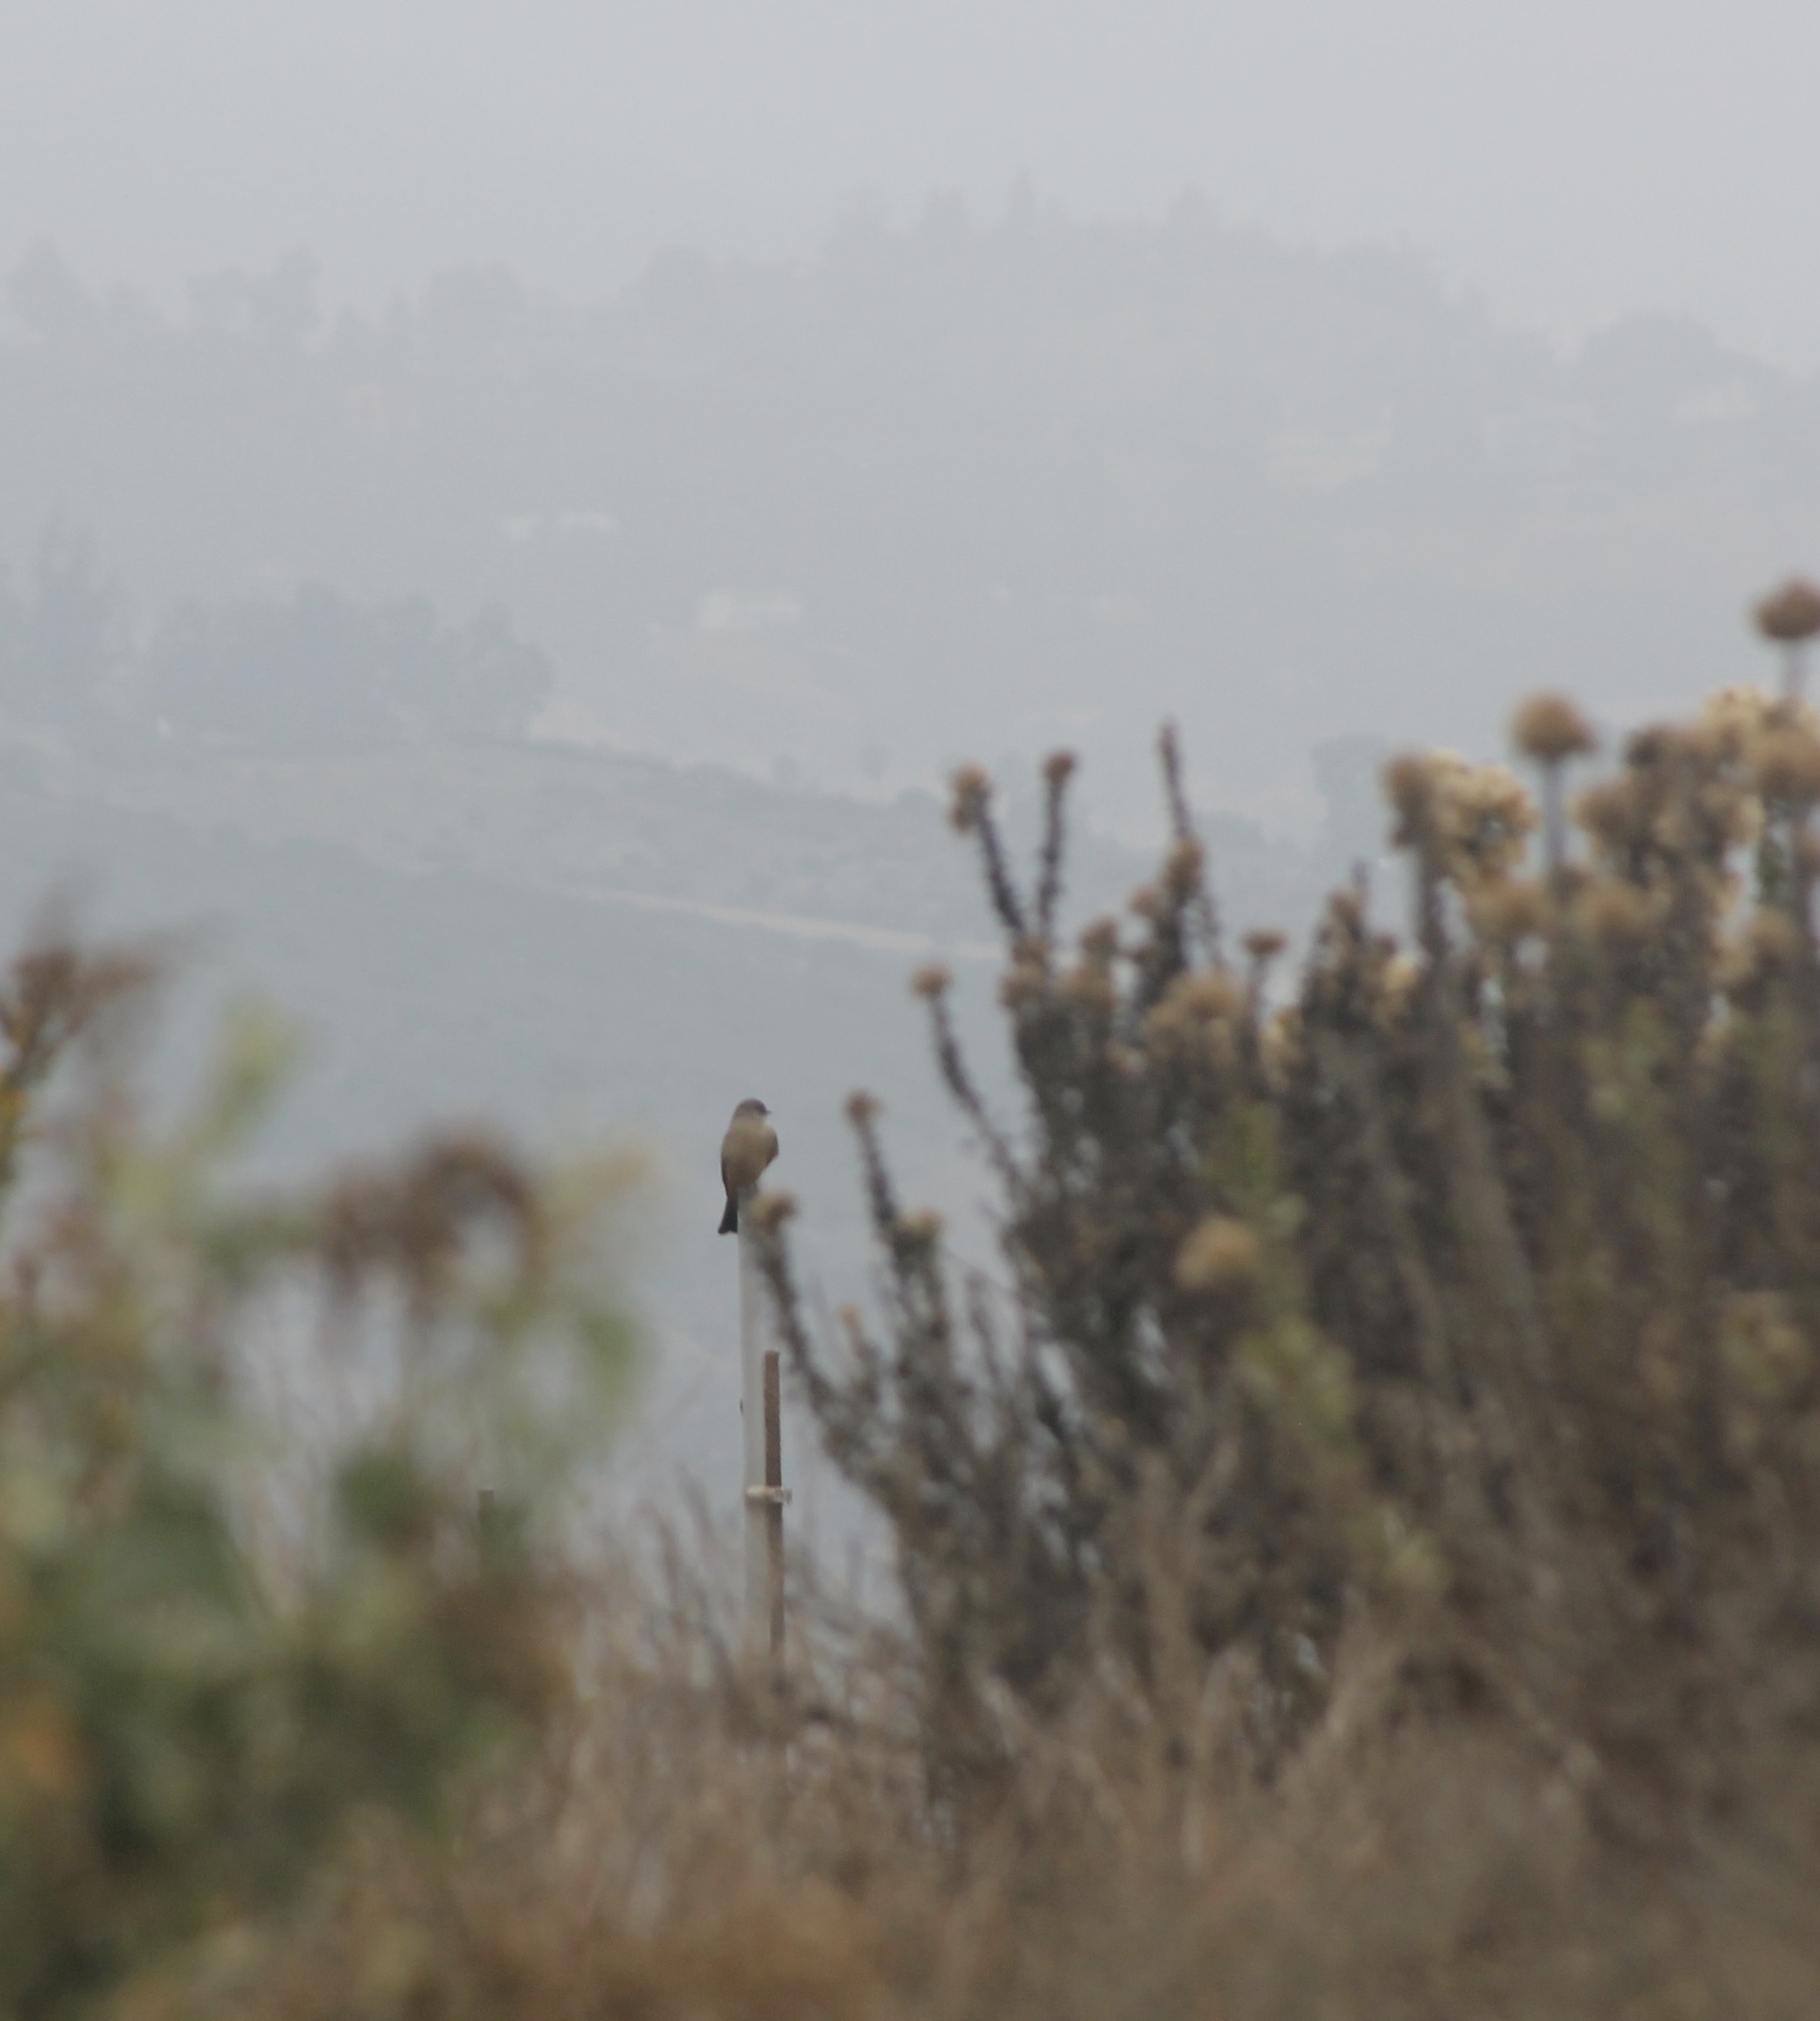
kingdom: Animalia
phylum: Chordata
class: Aves
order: Passeriformes
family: Tyrannidae
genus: Sayornis
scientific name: Sayornis saya
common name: Say's phoebe
